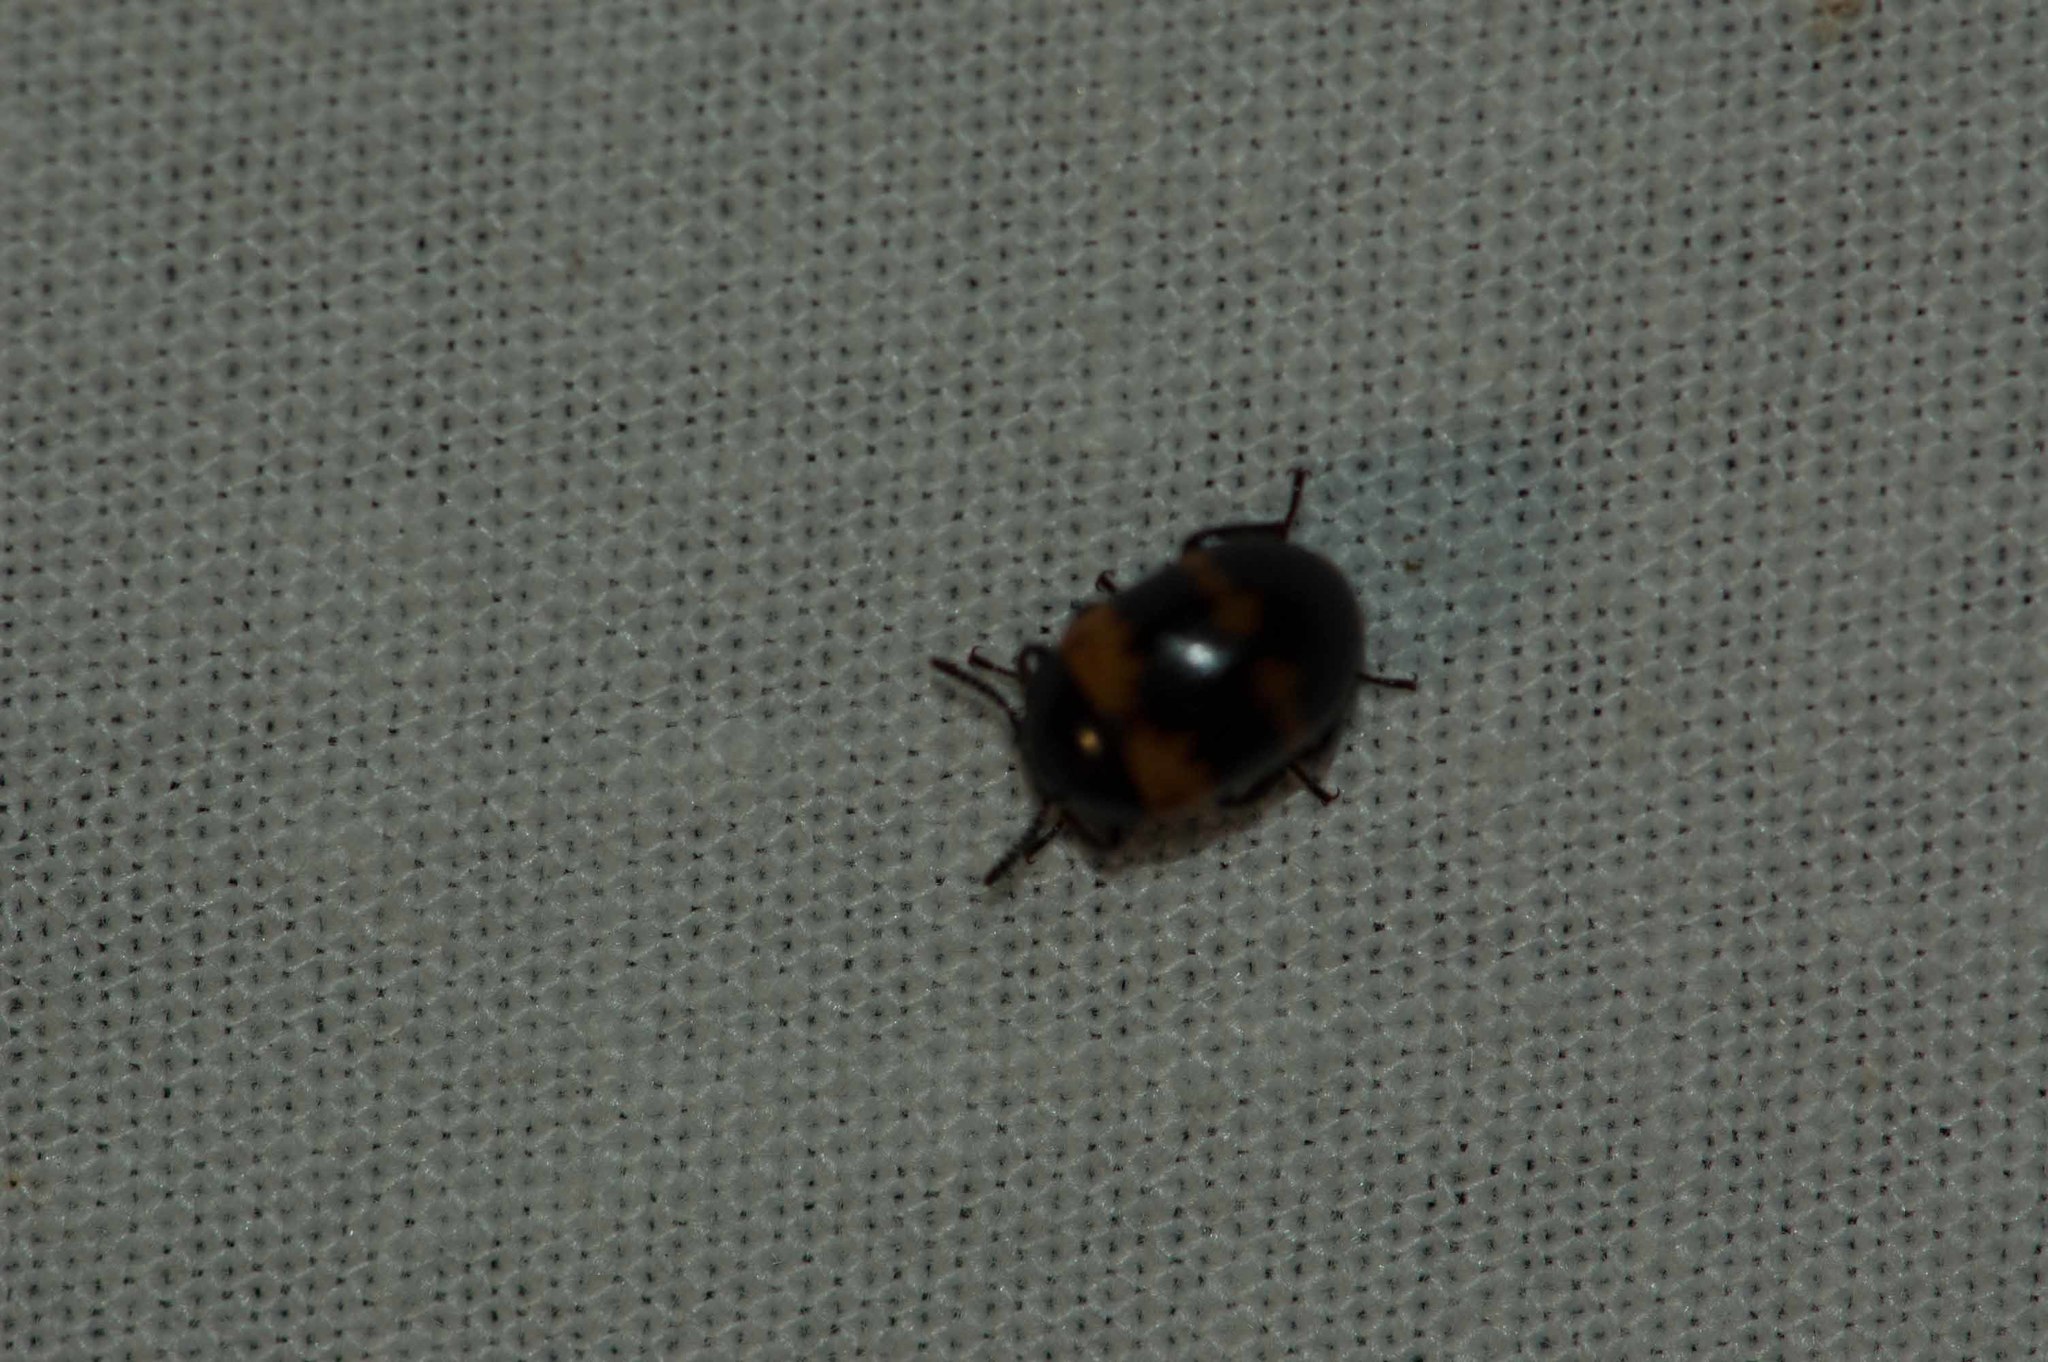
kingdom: Animalia
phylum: Arthropoda
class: Insecta
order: Coleoptera
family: Tenebrionidae
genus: Diaperis
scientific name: Diaperis boleti
